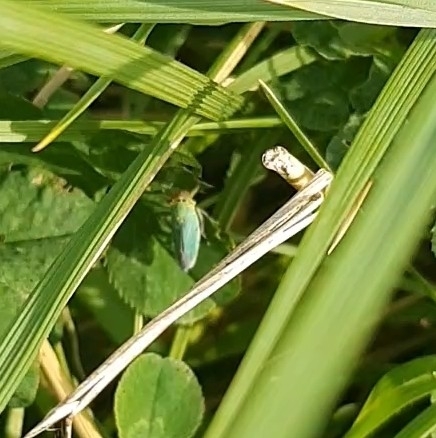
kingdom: Animalia
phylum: Arthropoda
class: Insecta
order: Hemiptera
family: Cicadellidae
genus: Cicadella
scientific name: Cicadella viridis
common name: Leafhopper
